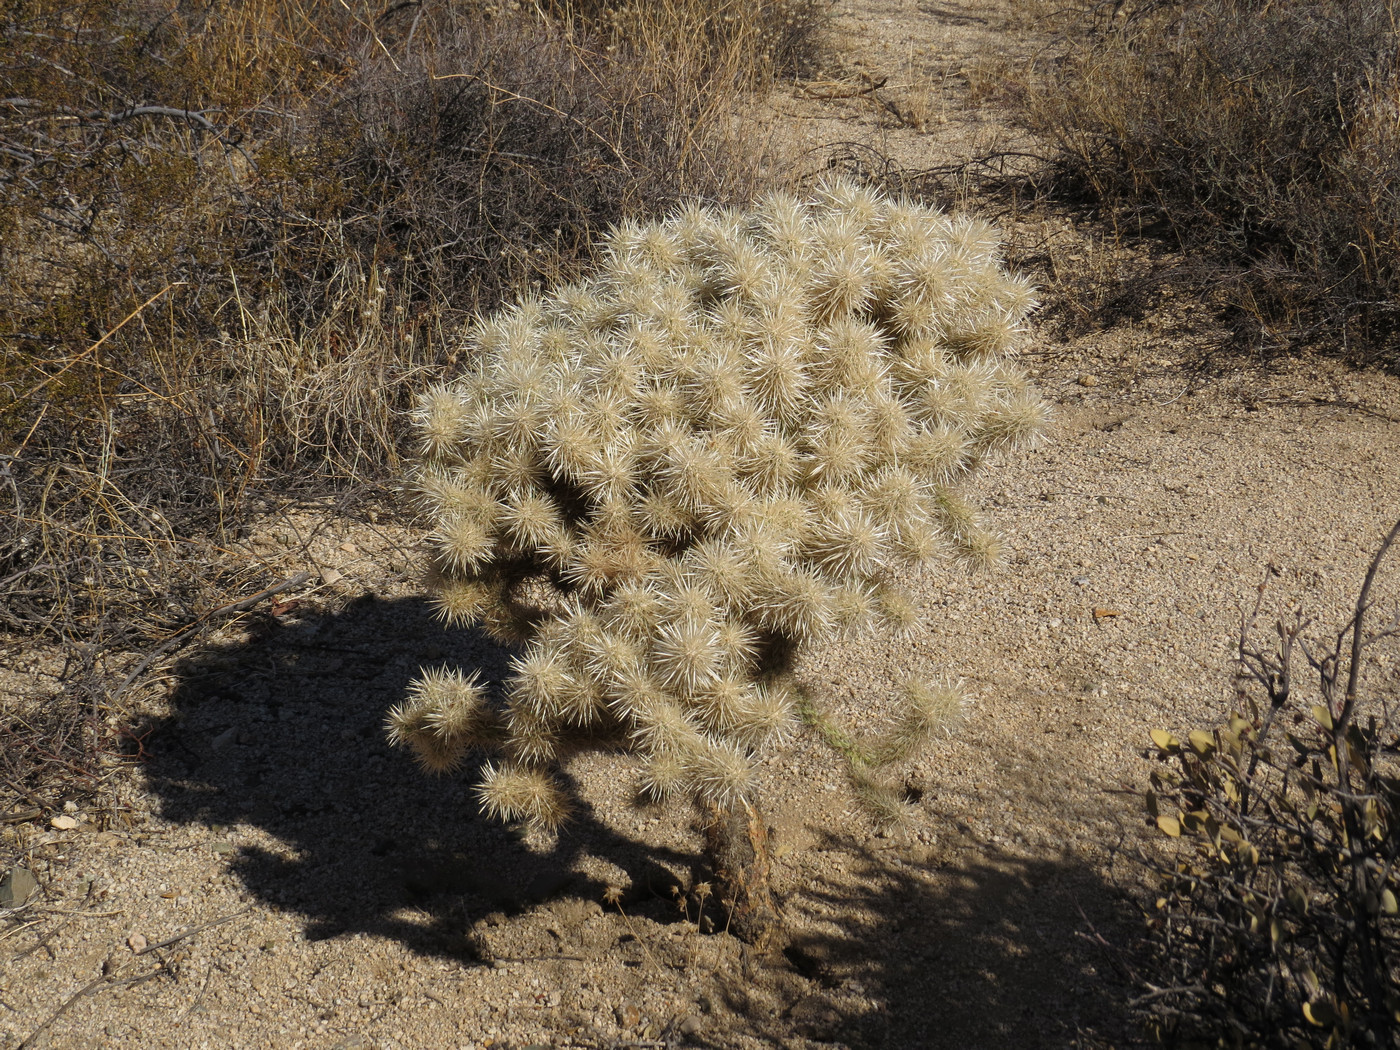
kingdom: Plantae
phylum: Tracheophyta
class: Magnoliopsida
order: Caryophyllales
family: Cactaceae
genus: Cylindropuntia
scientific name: Cylindropuntia echinocarpa
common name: Ground cholla
